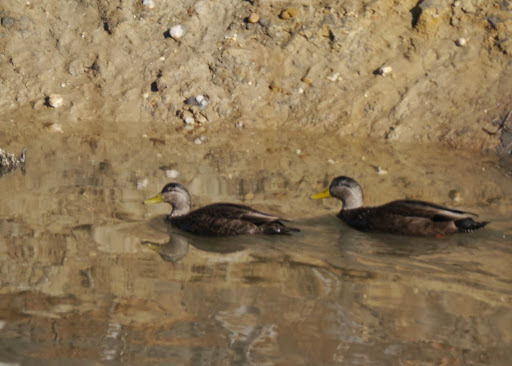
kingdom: Animalia
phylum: Chordata
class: Aves
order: Anseriformes
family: Anatidae
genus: Anas
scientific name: Anas rubripes
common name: American black duck
